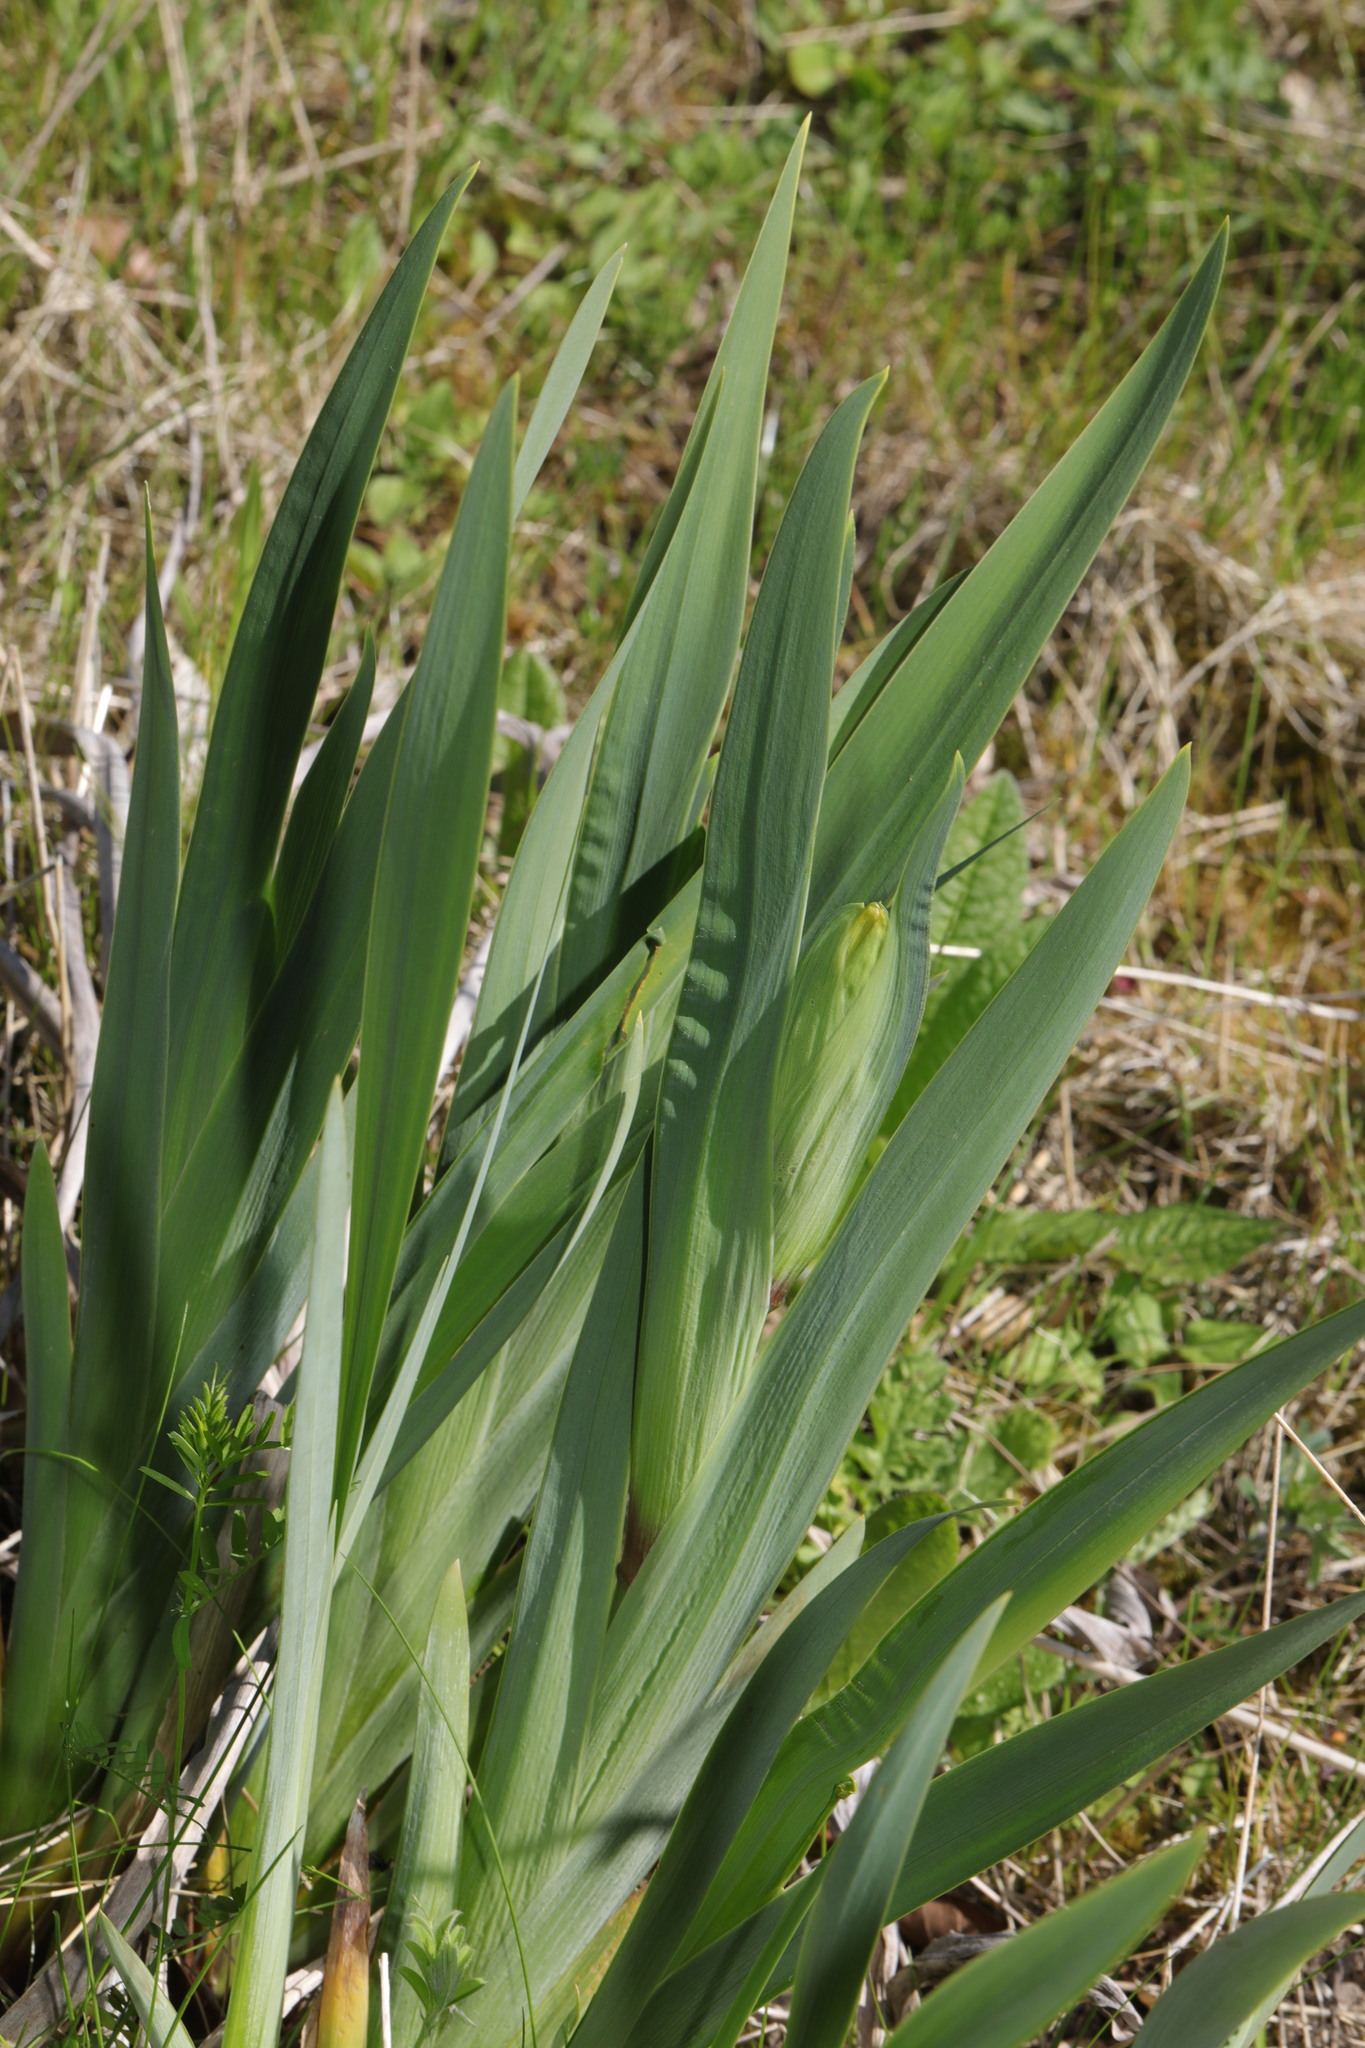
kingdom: Plantae
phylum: Tracheophyta
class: Liliopsida
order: Asparagales
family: Iridaceae
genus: Iris
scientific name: Iris pseudacorus
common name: Yellow flag
